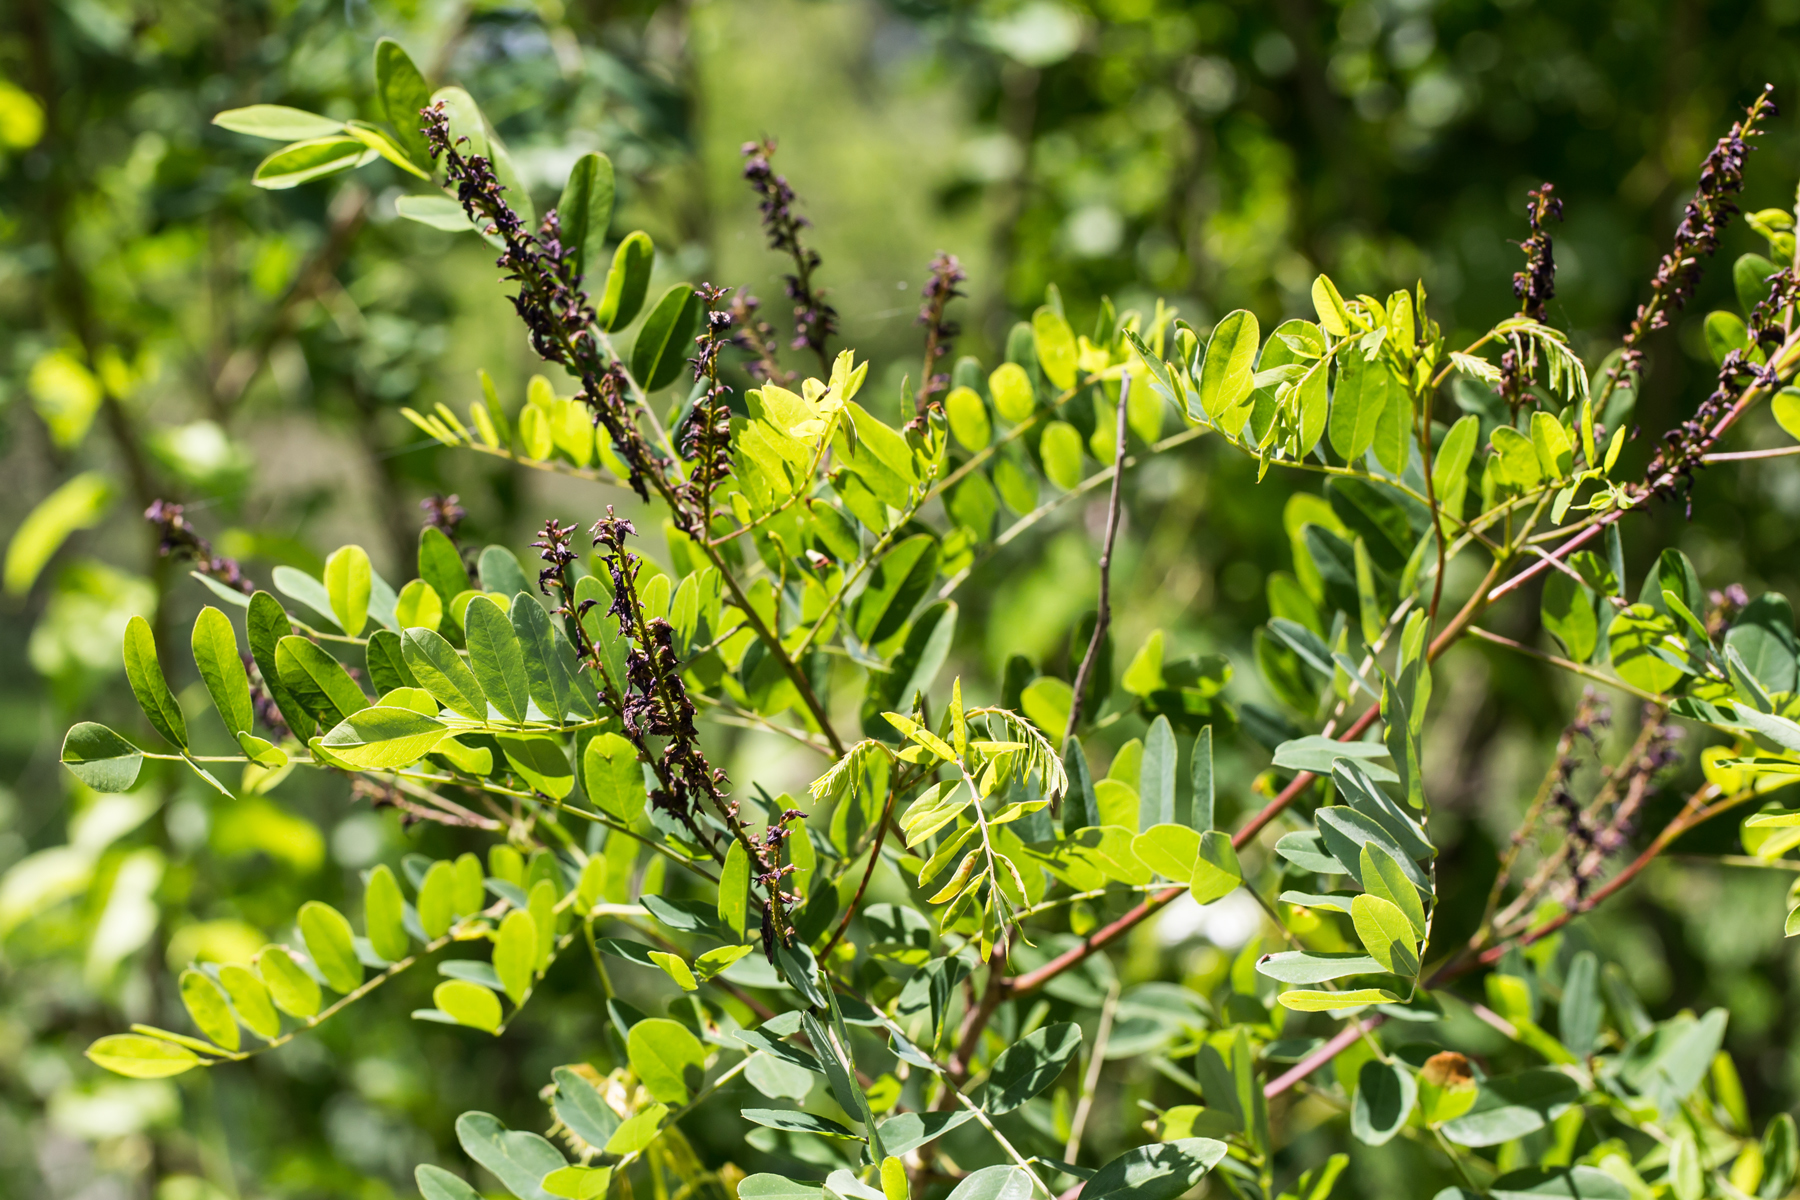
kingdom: Plantae
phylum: Tracheophyta
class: Magnoliopsida
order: Fabales
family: Fabaceae
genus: Amorpha
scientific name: Amorpha fruticosa
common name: False indigo
